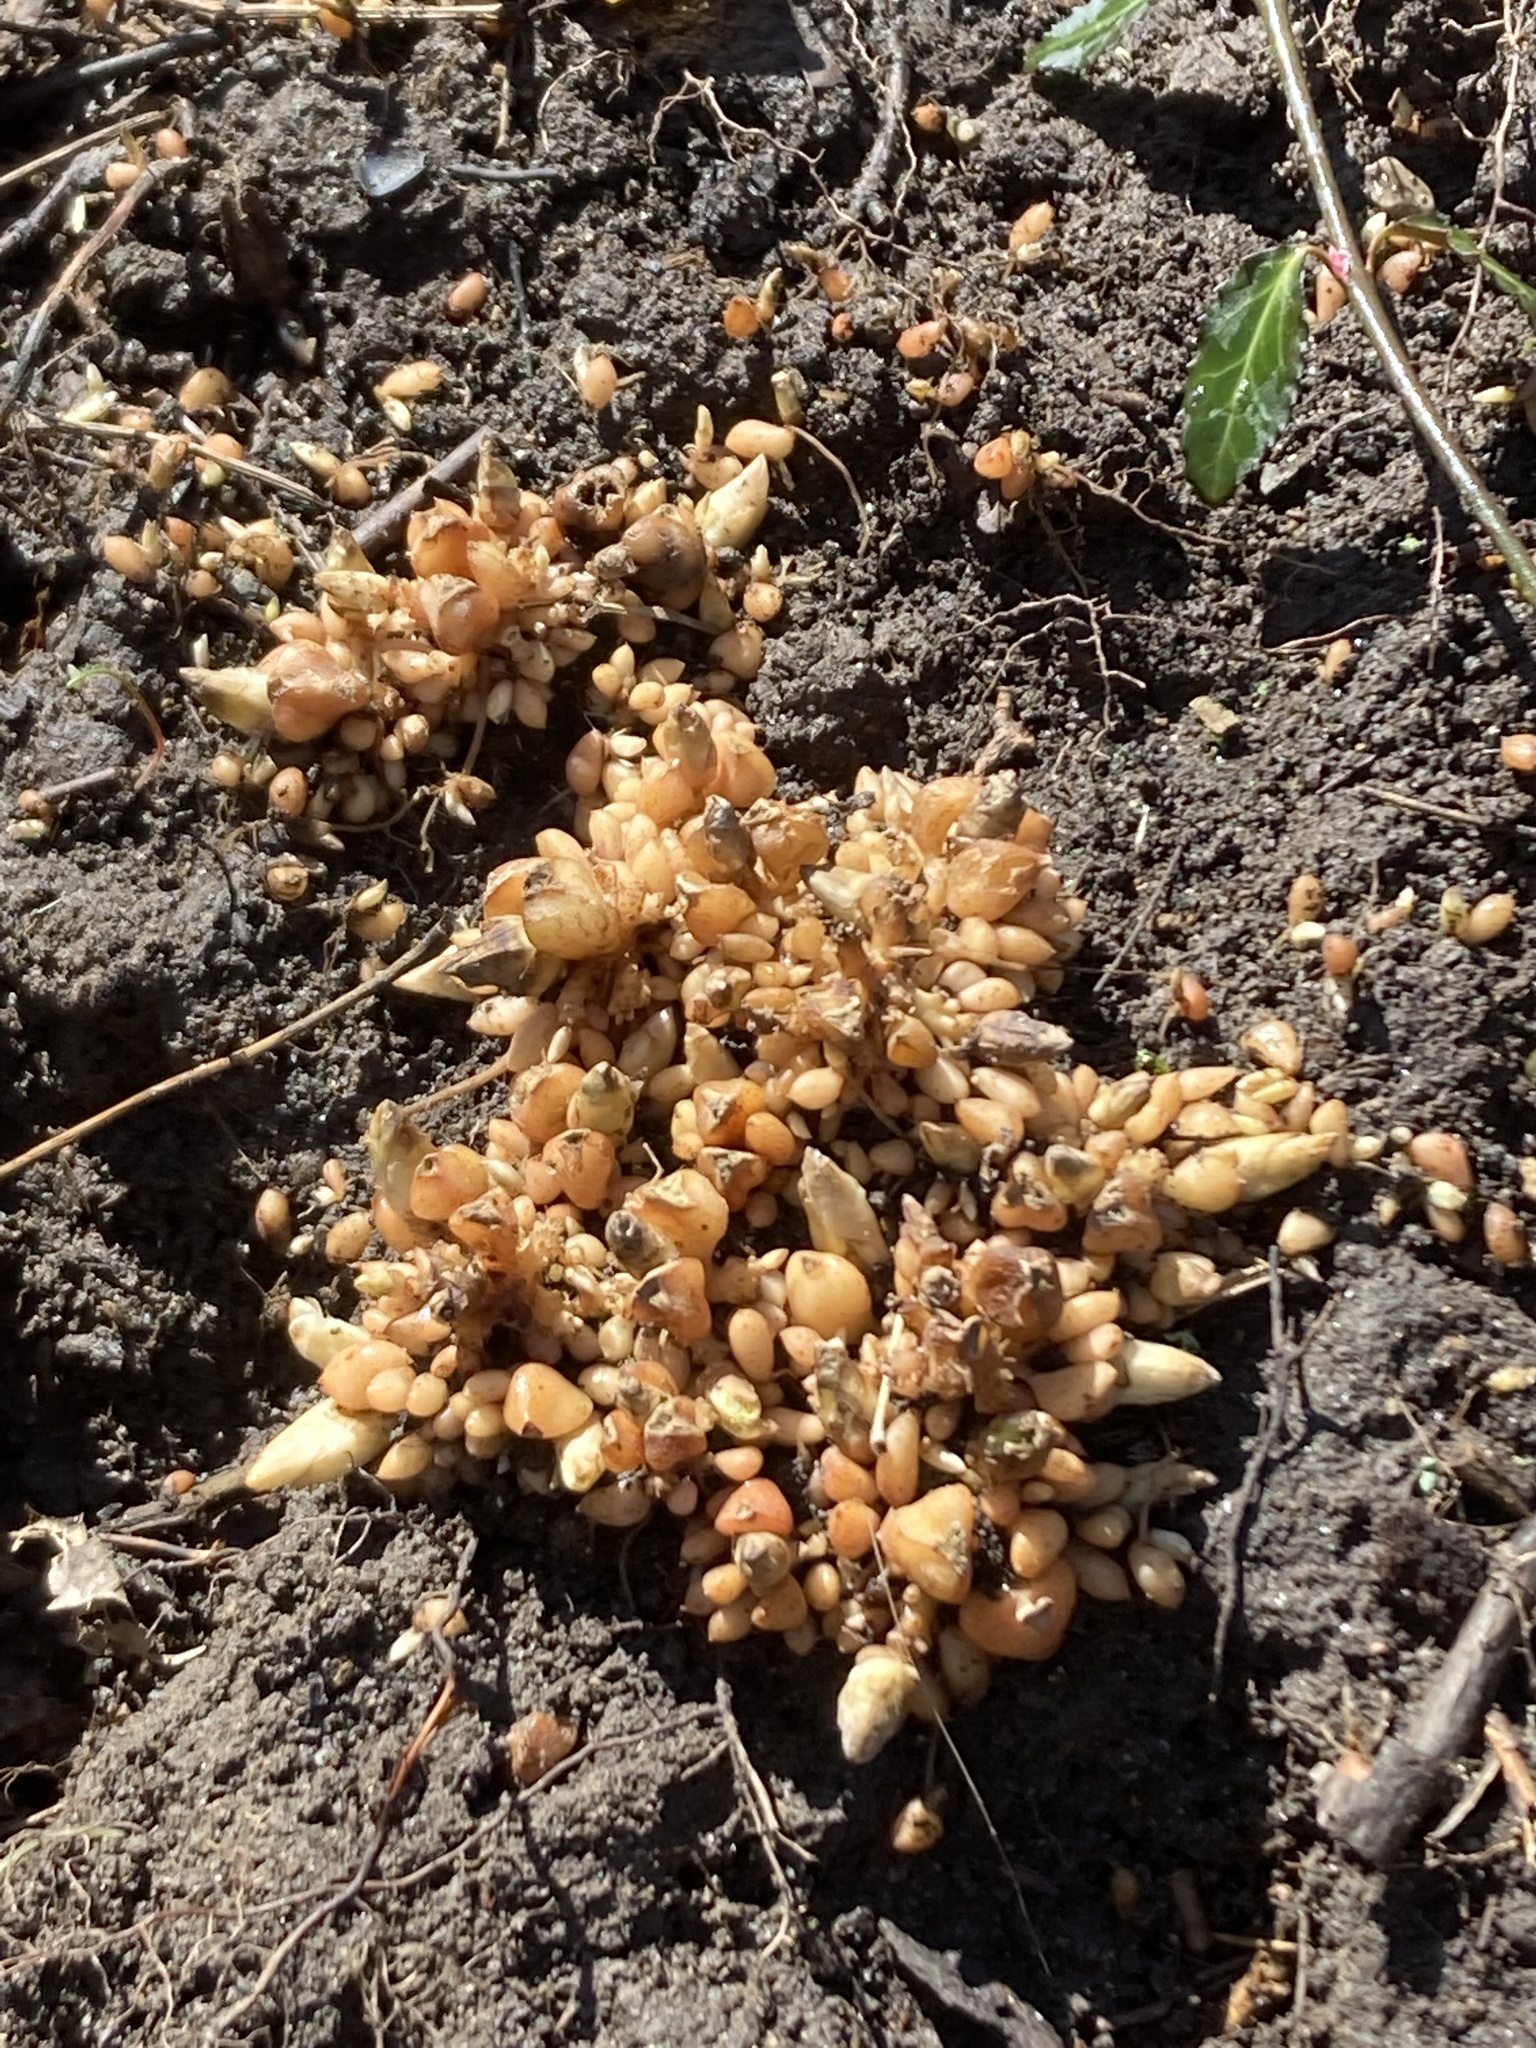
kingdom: Plantae
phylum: Tracheophyta
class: Magnoliopsida
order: Ranunculales
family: Papaveraceae
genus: Dicentra
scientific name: Dicentra cucullaria
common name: Dutchman's breeches
